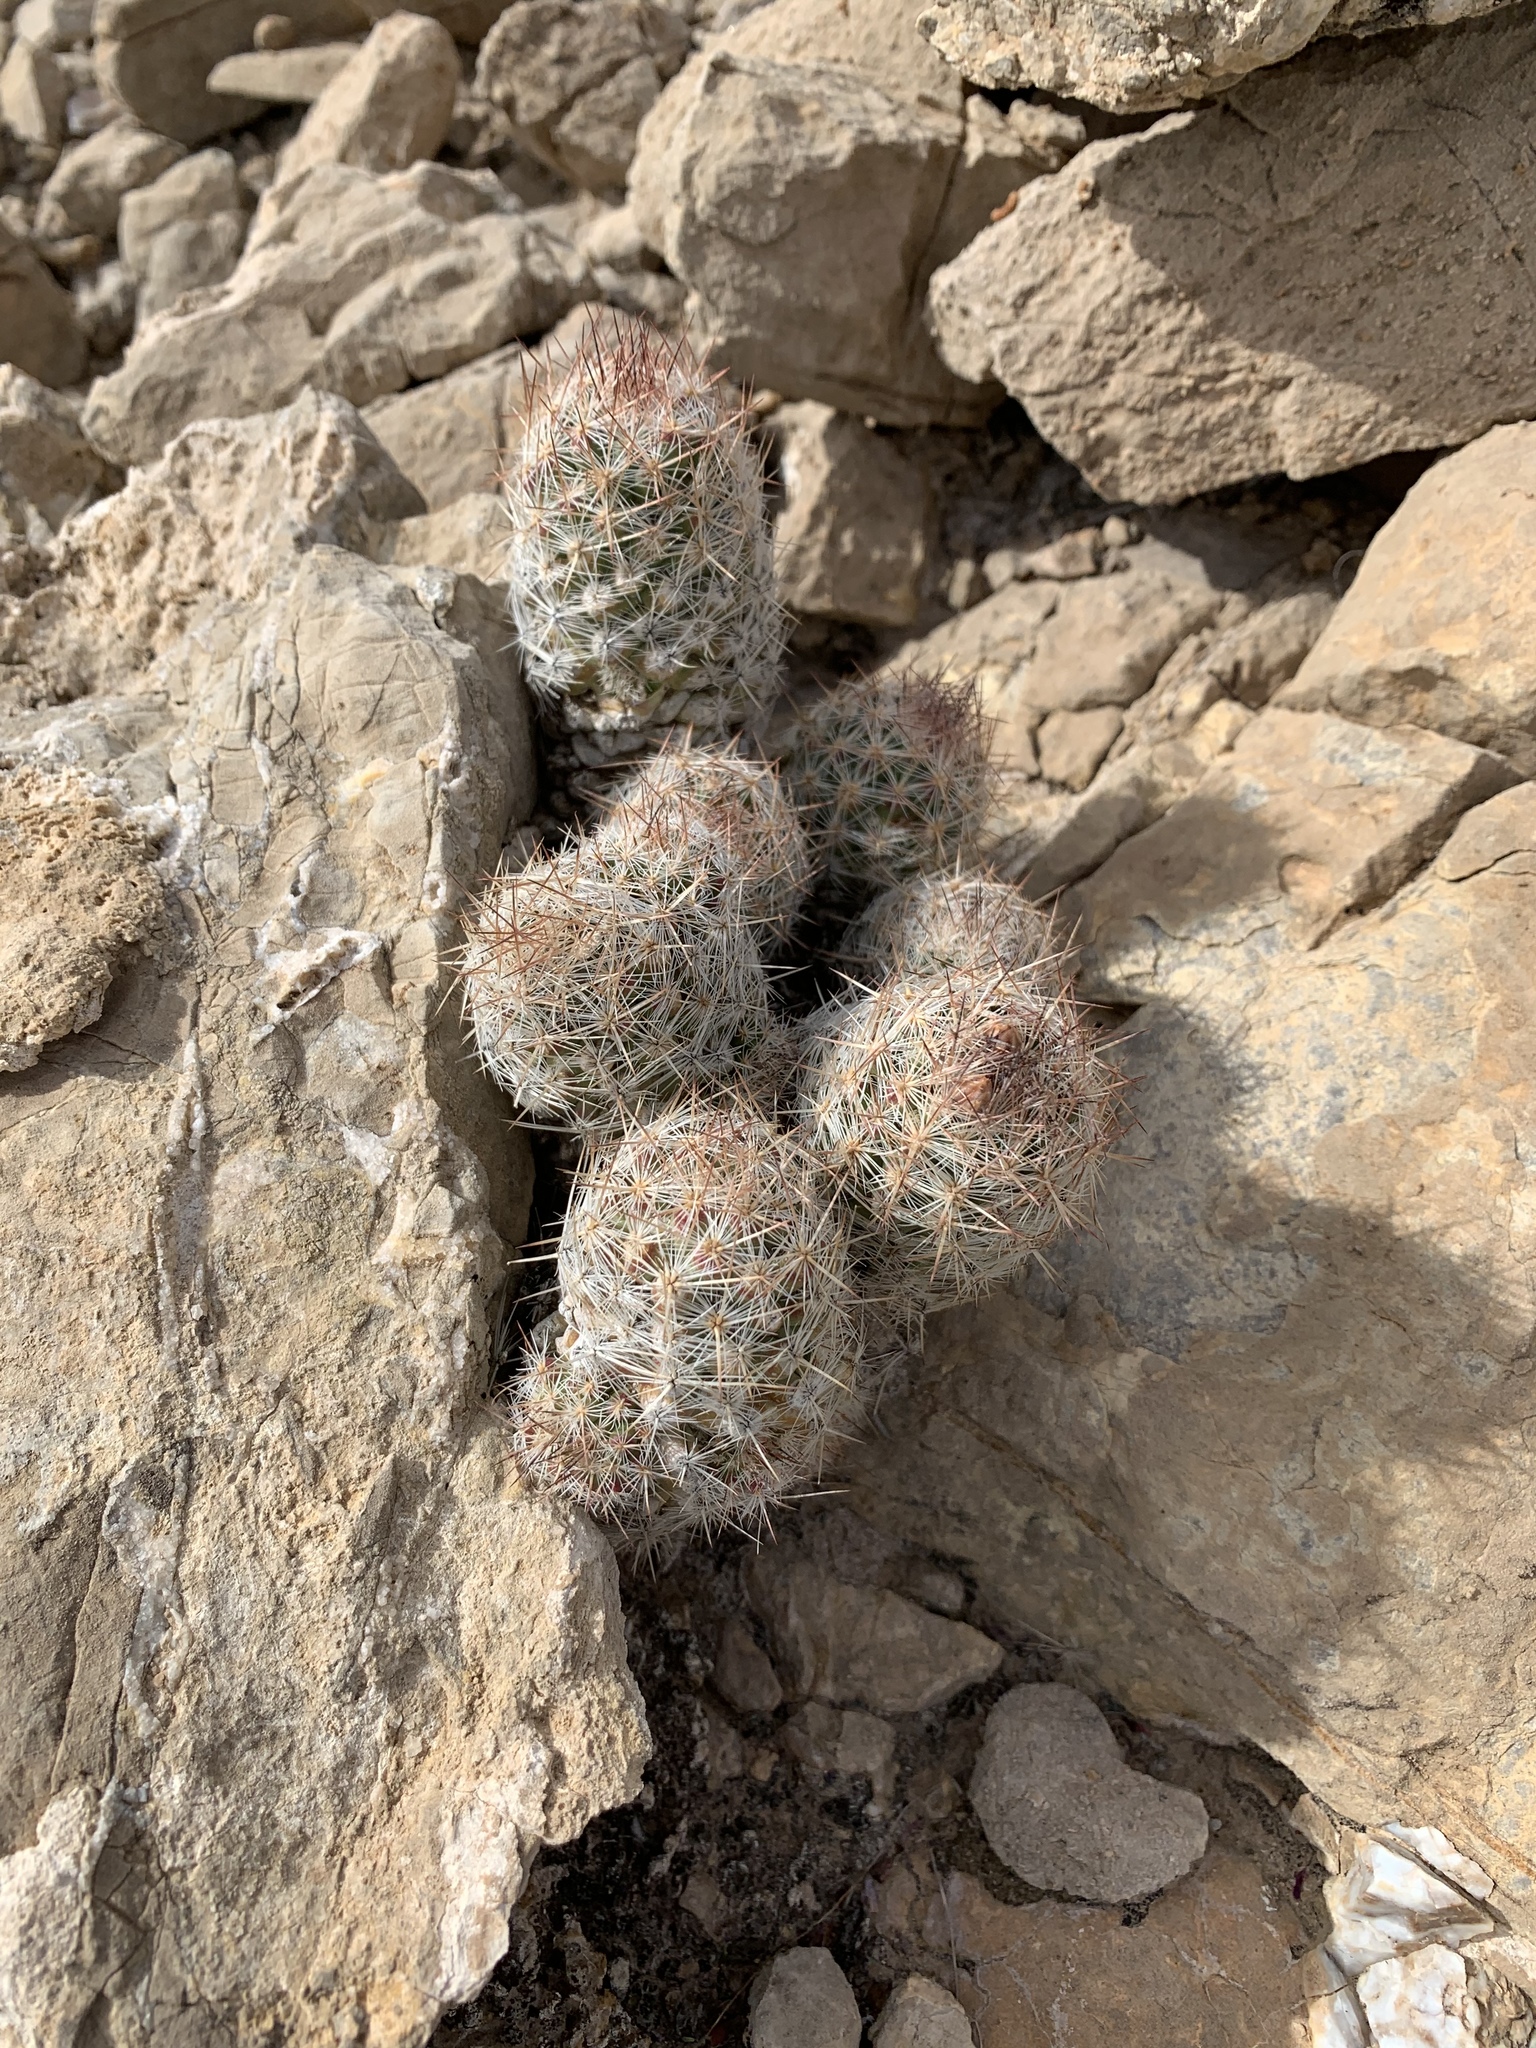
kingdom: Plantae
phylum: Tracheophyta
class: Magnoliopsida
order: Caryophyllales
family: Cactaceae
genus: Pelecyphora
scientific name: Pelecyphora tuberculosa
